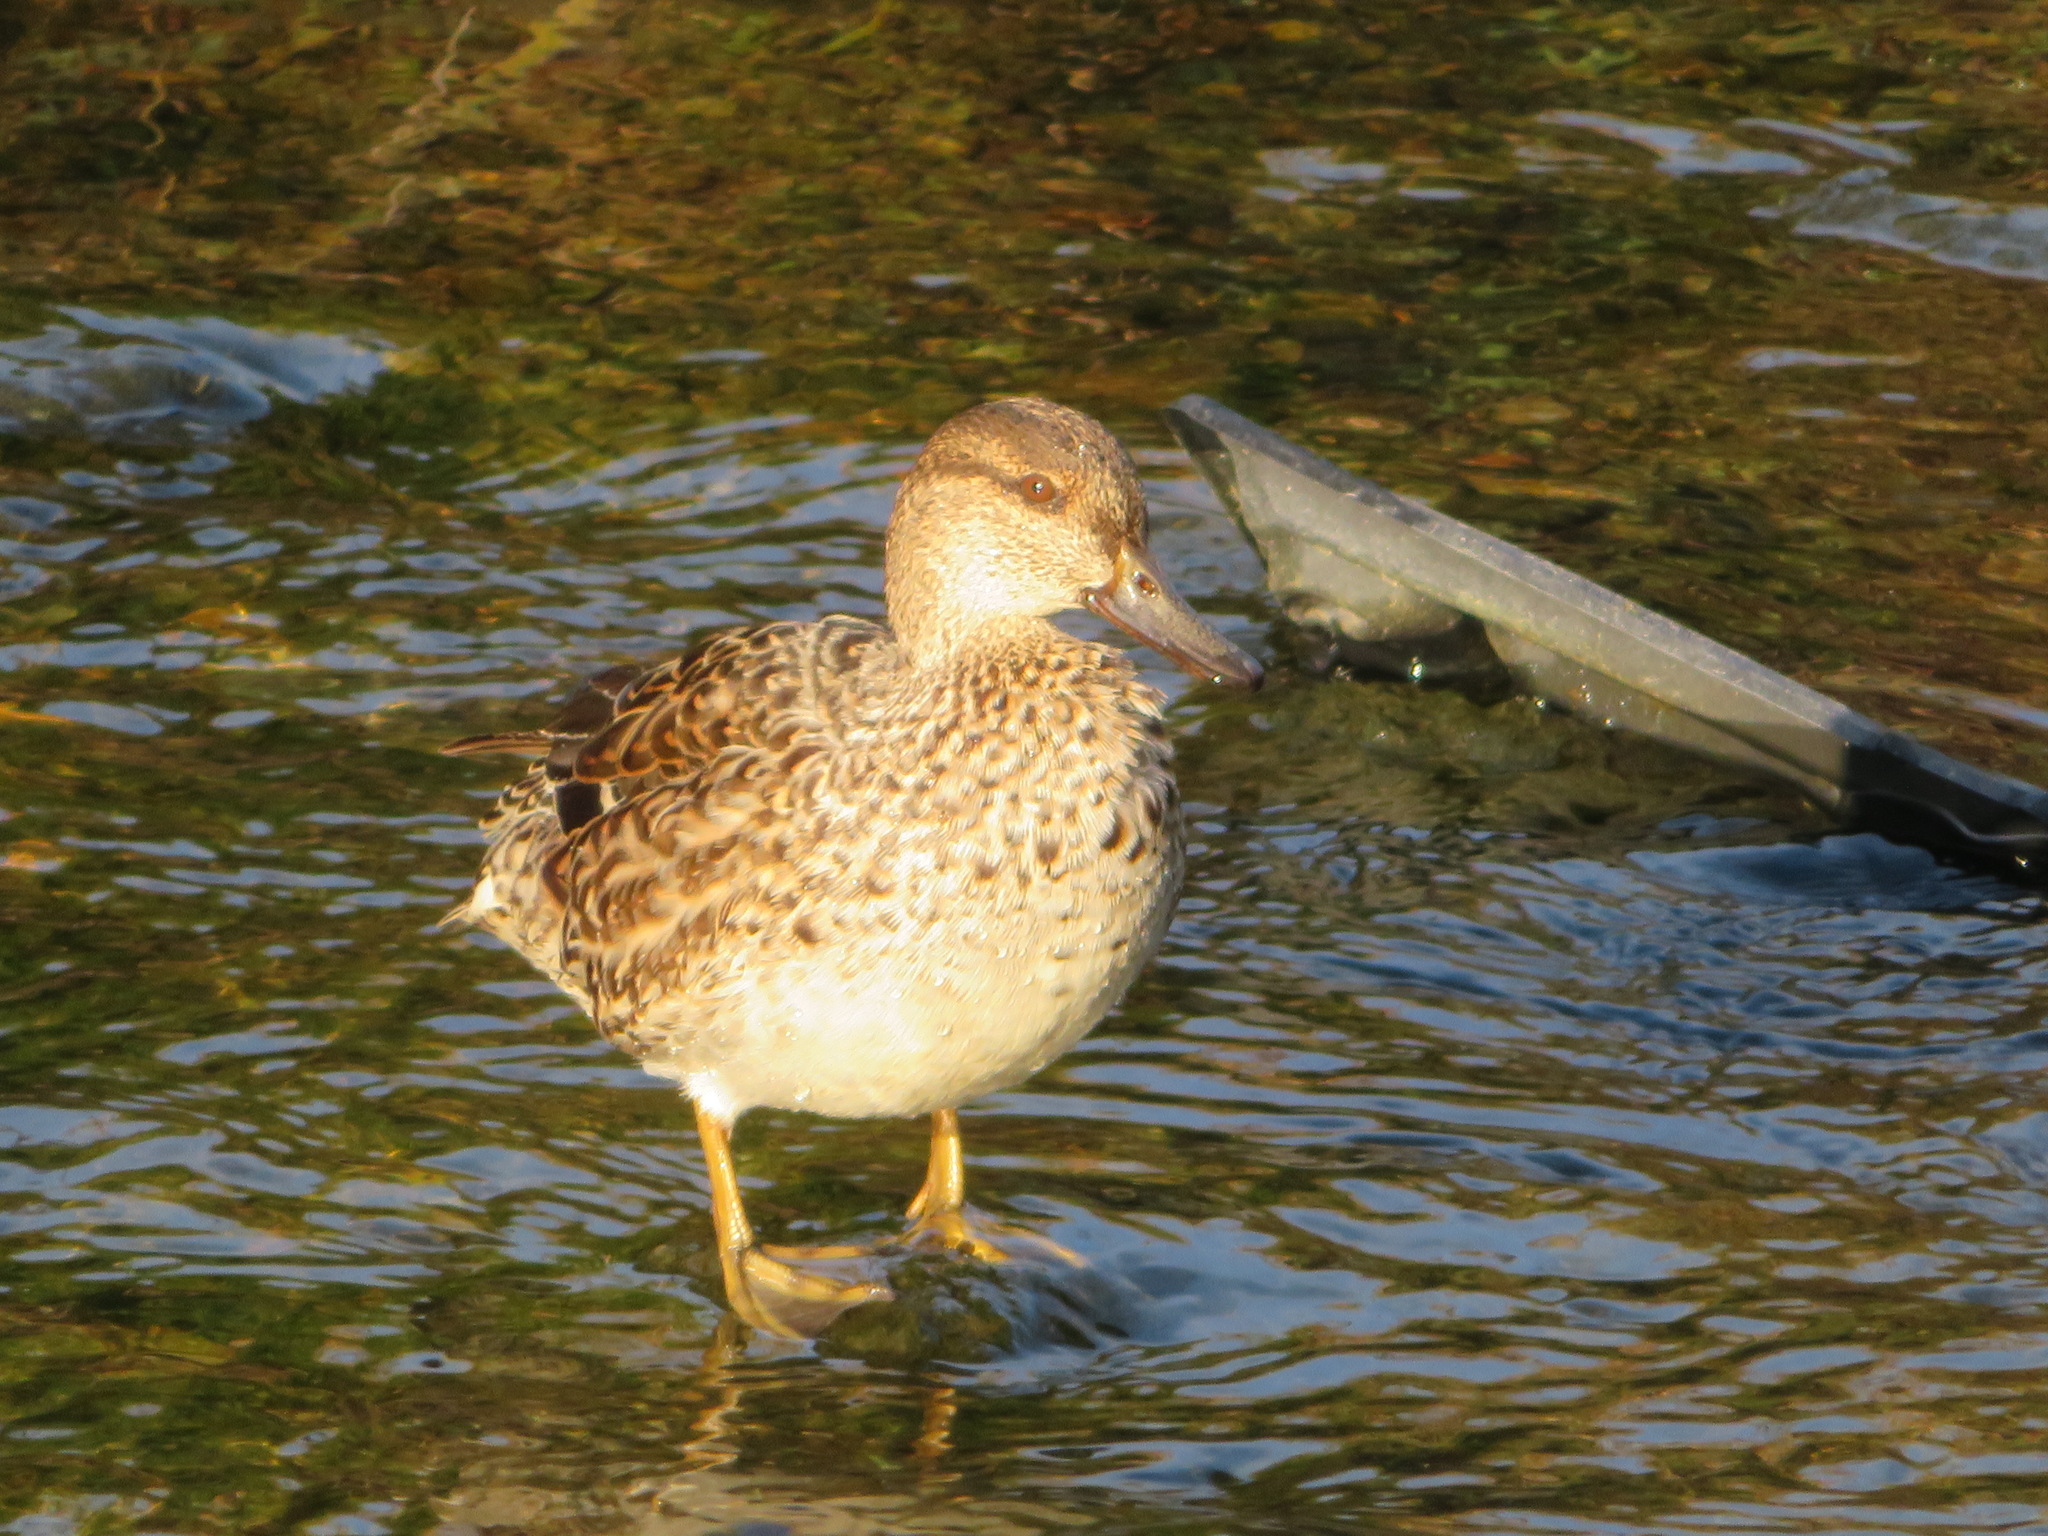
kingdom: Animalia
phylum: Chordata
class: Aves
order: Anseriformes
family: Anatidae
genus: Anas
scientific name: Anas crecca
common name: Eurasian teal
